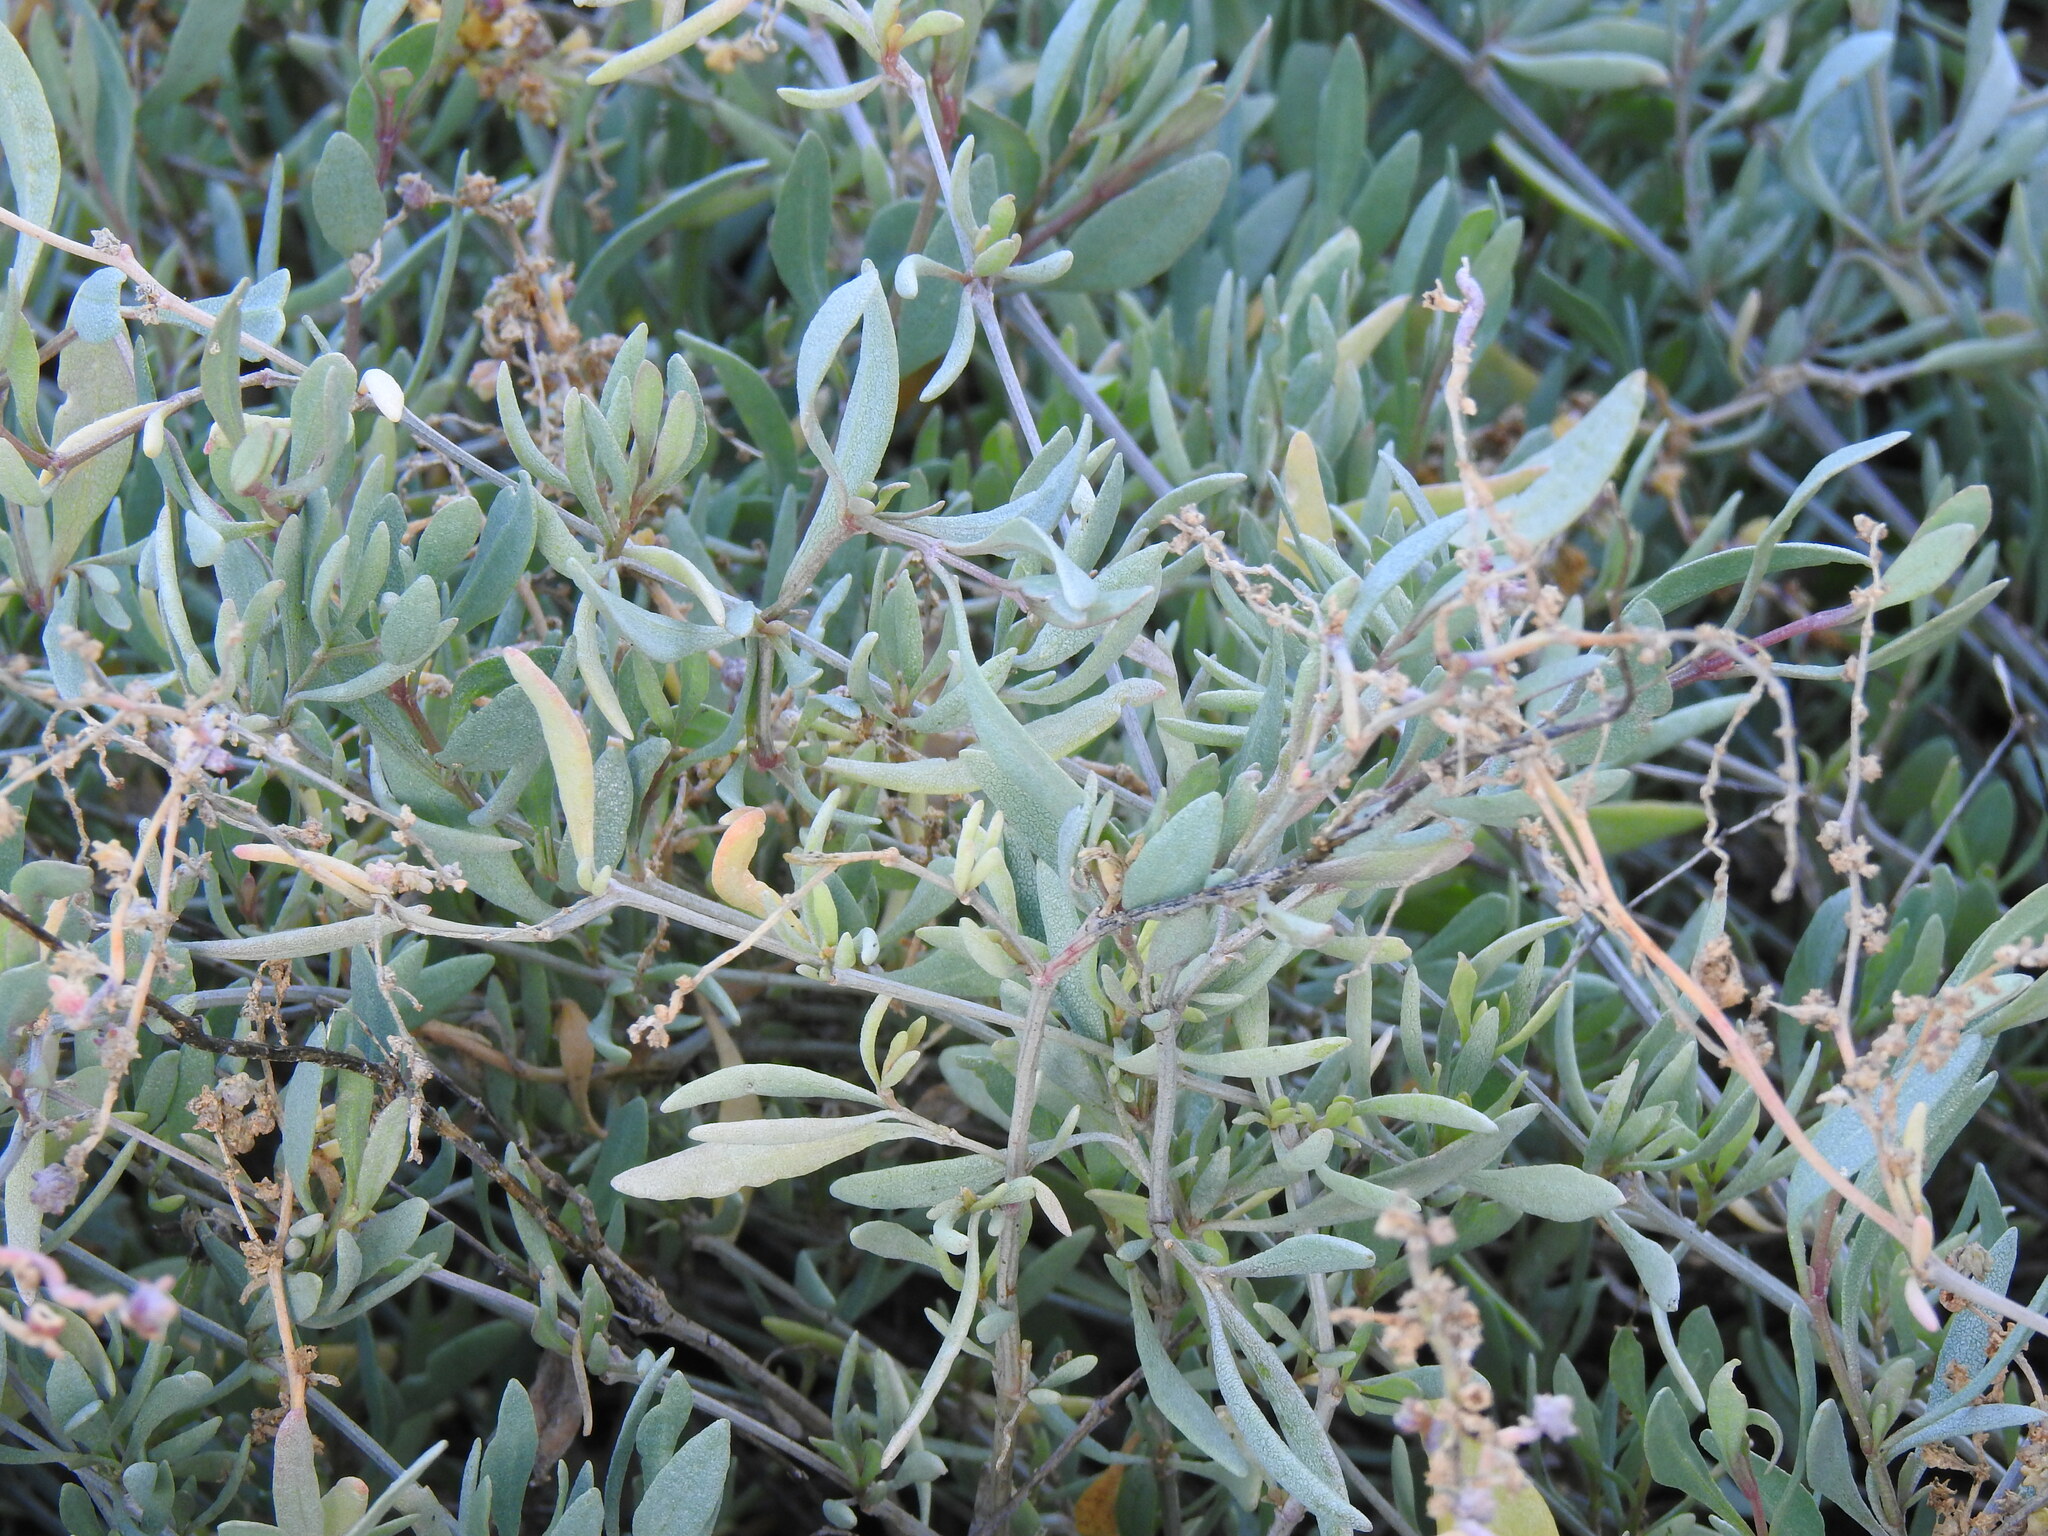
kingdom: Plantae
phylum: Tracheophyta
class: Magnoliopsida
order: Caryophyllales
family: Amaranthaceae
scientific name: Amaranthaceae
